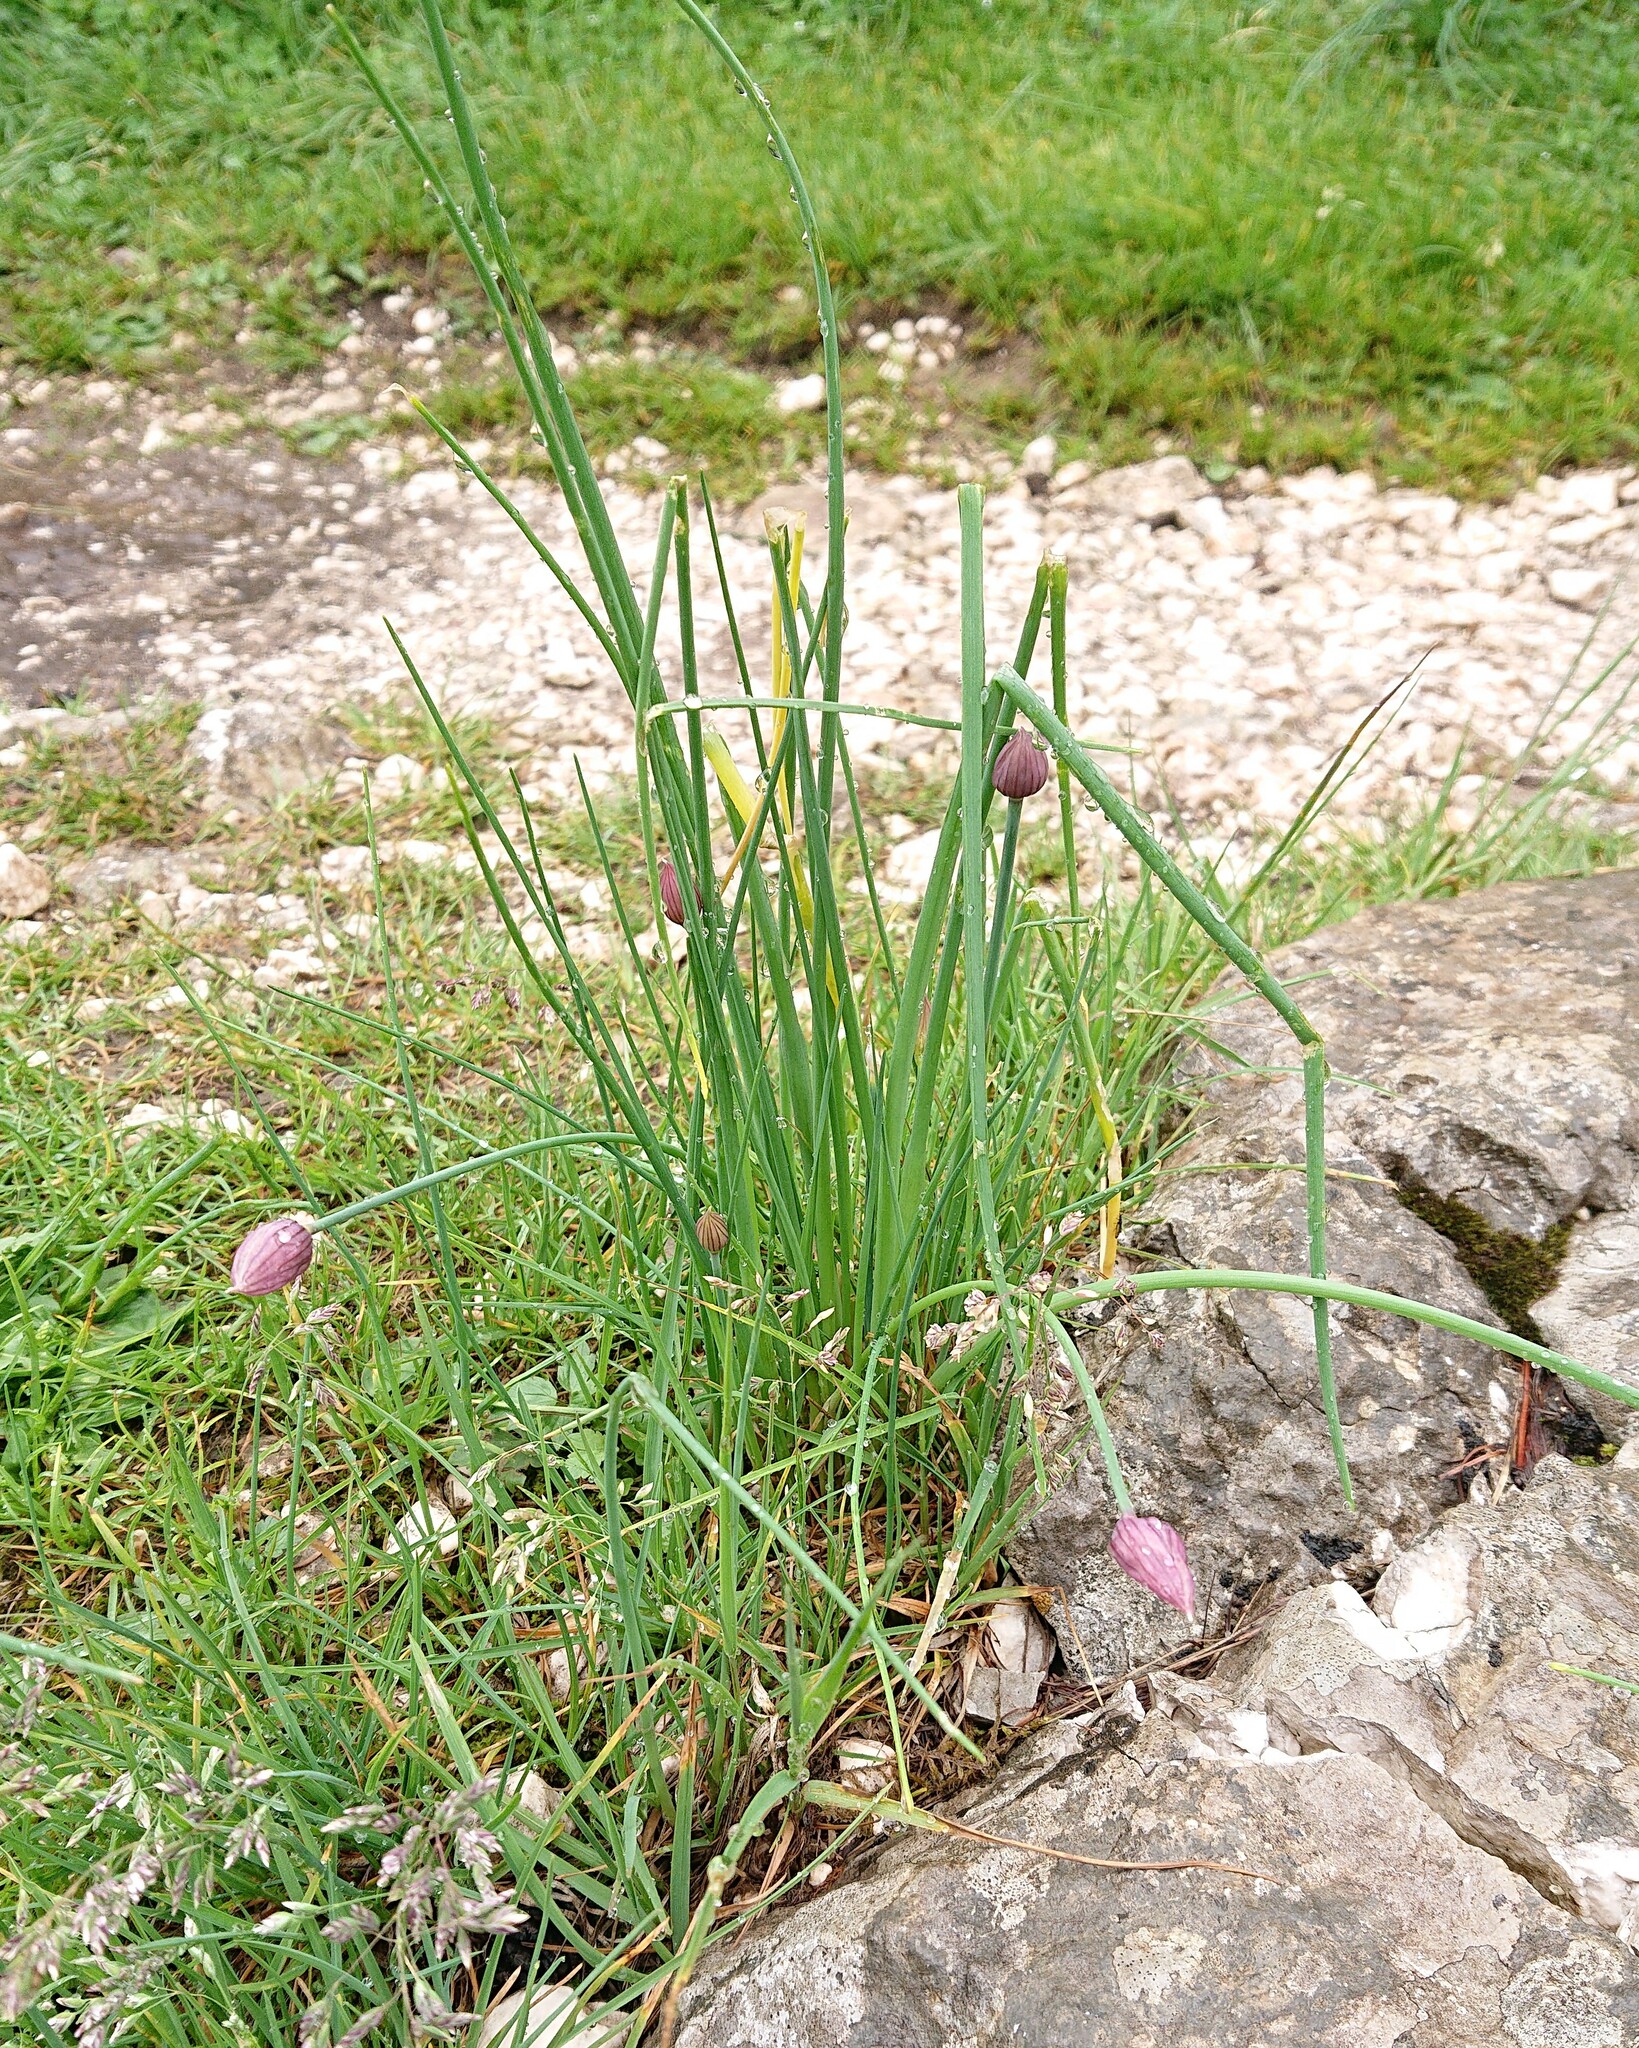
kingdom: Plantae
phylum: Tracheophyta
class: Liliopsida
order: Asparagales
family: Amaryllidaceae
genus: Allium
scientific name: Allium schoenoprasum
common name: Chives
